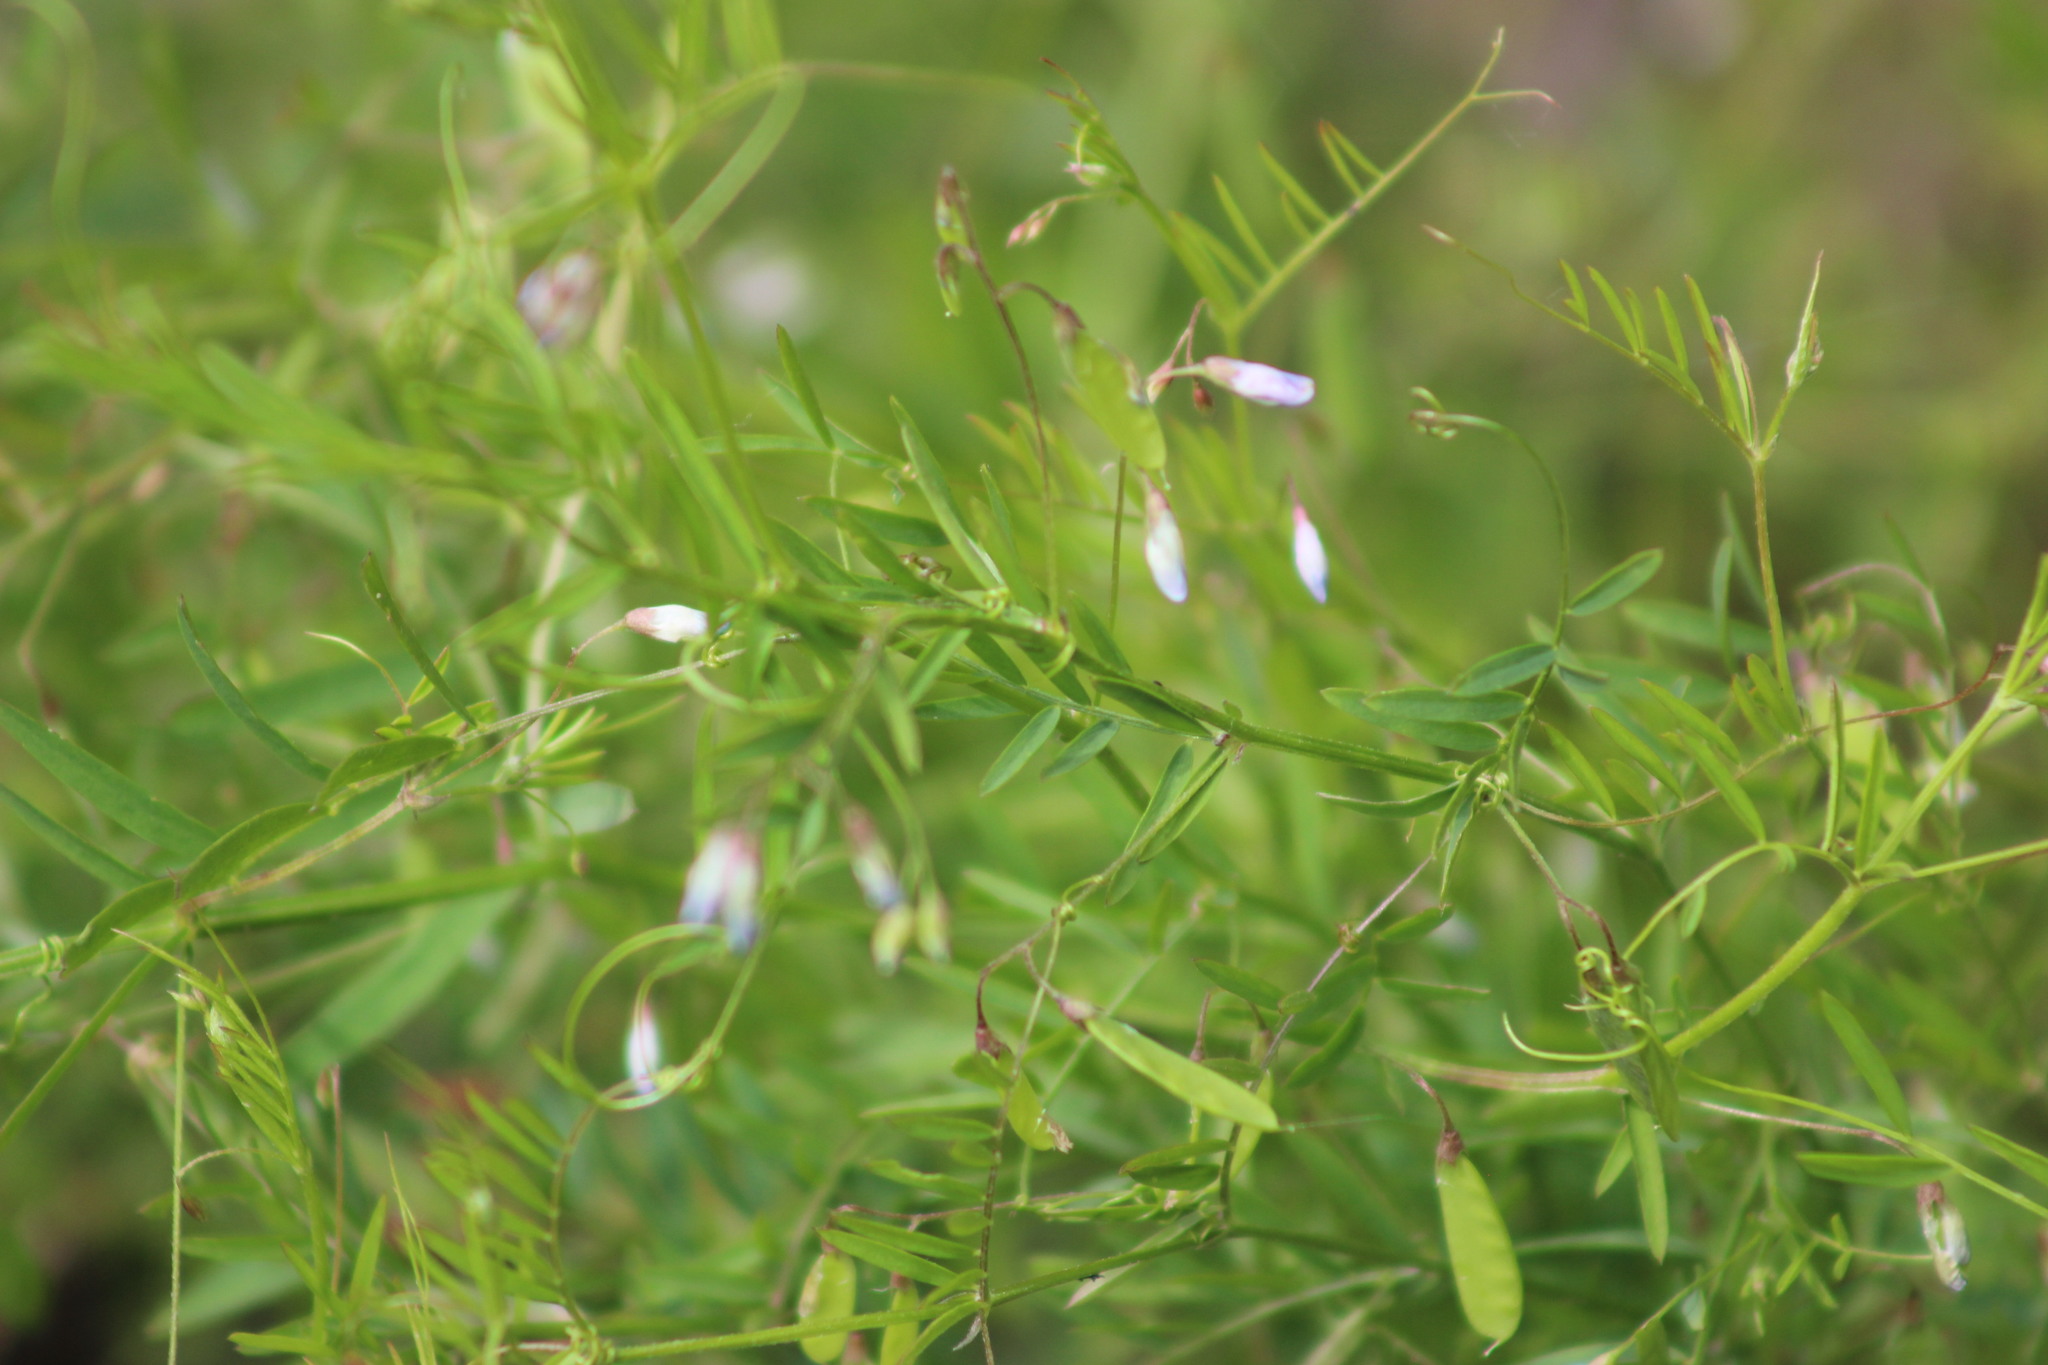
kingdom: Plantae
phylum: Tracheophyta
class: Magnoliopsida
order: Fabales
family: Fabaceae
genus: Vicia
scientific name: Vicia tetrasperma
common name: Smooth tare
